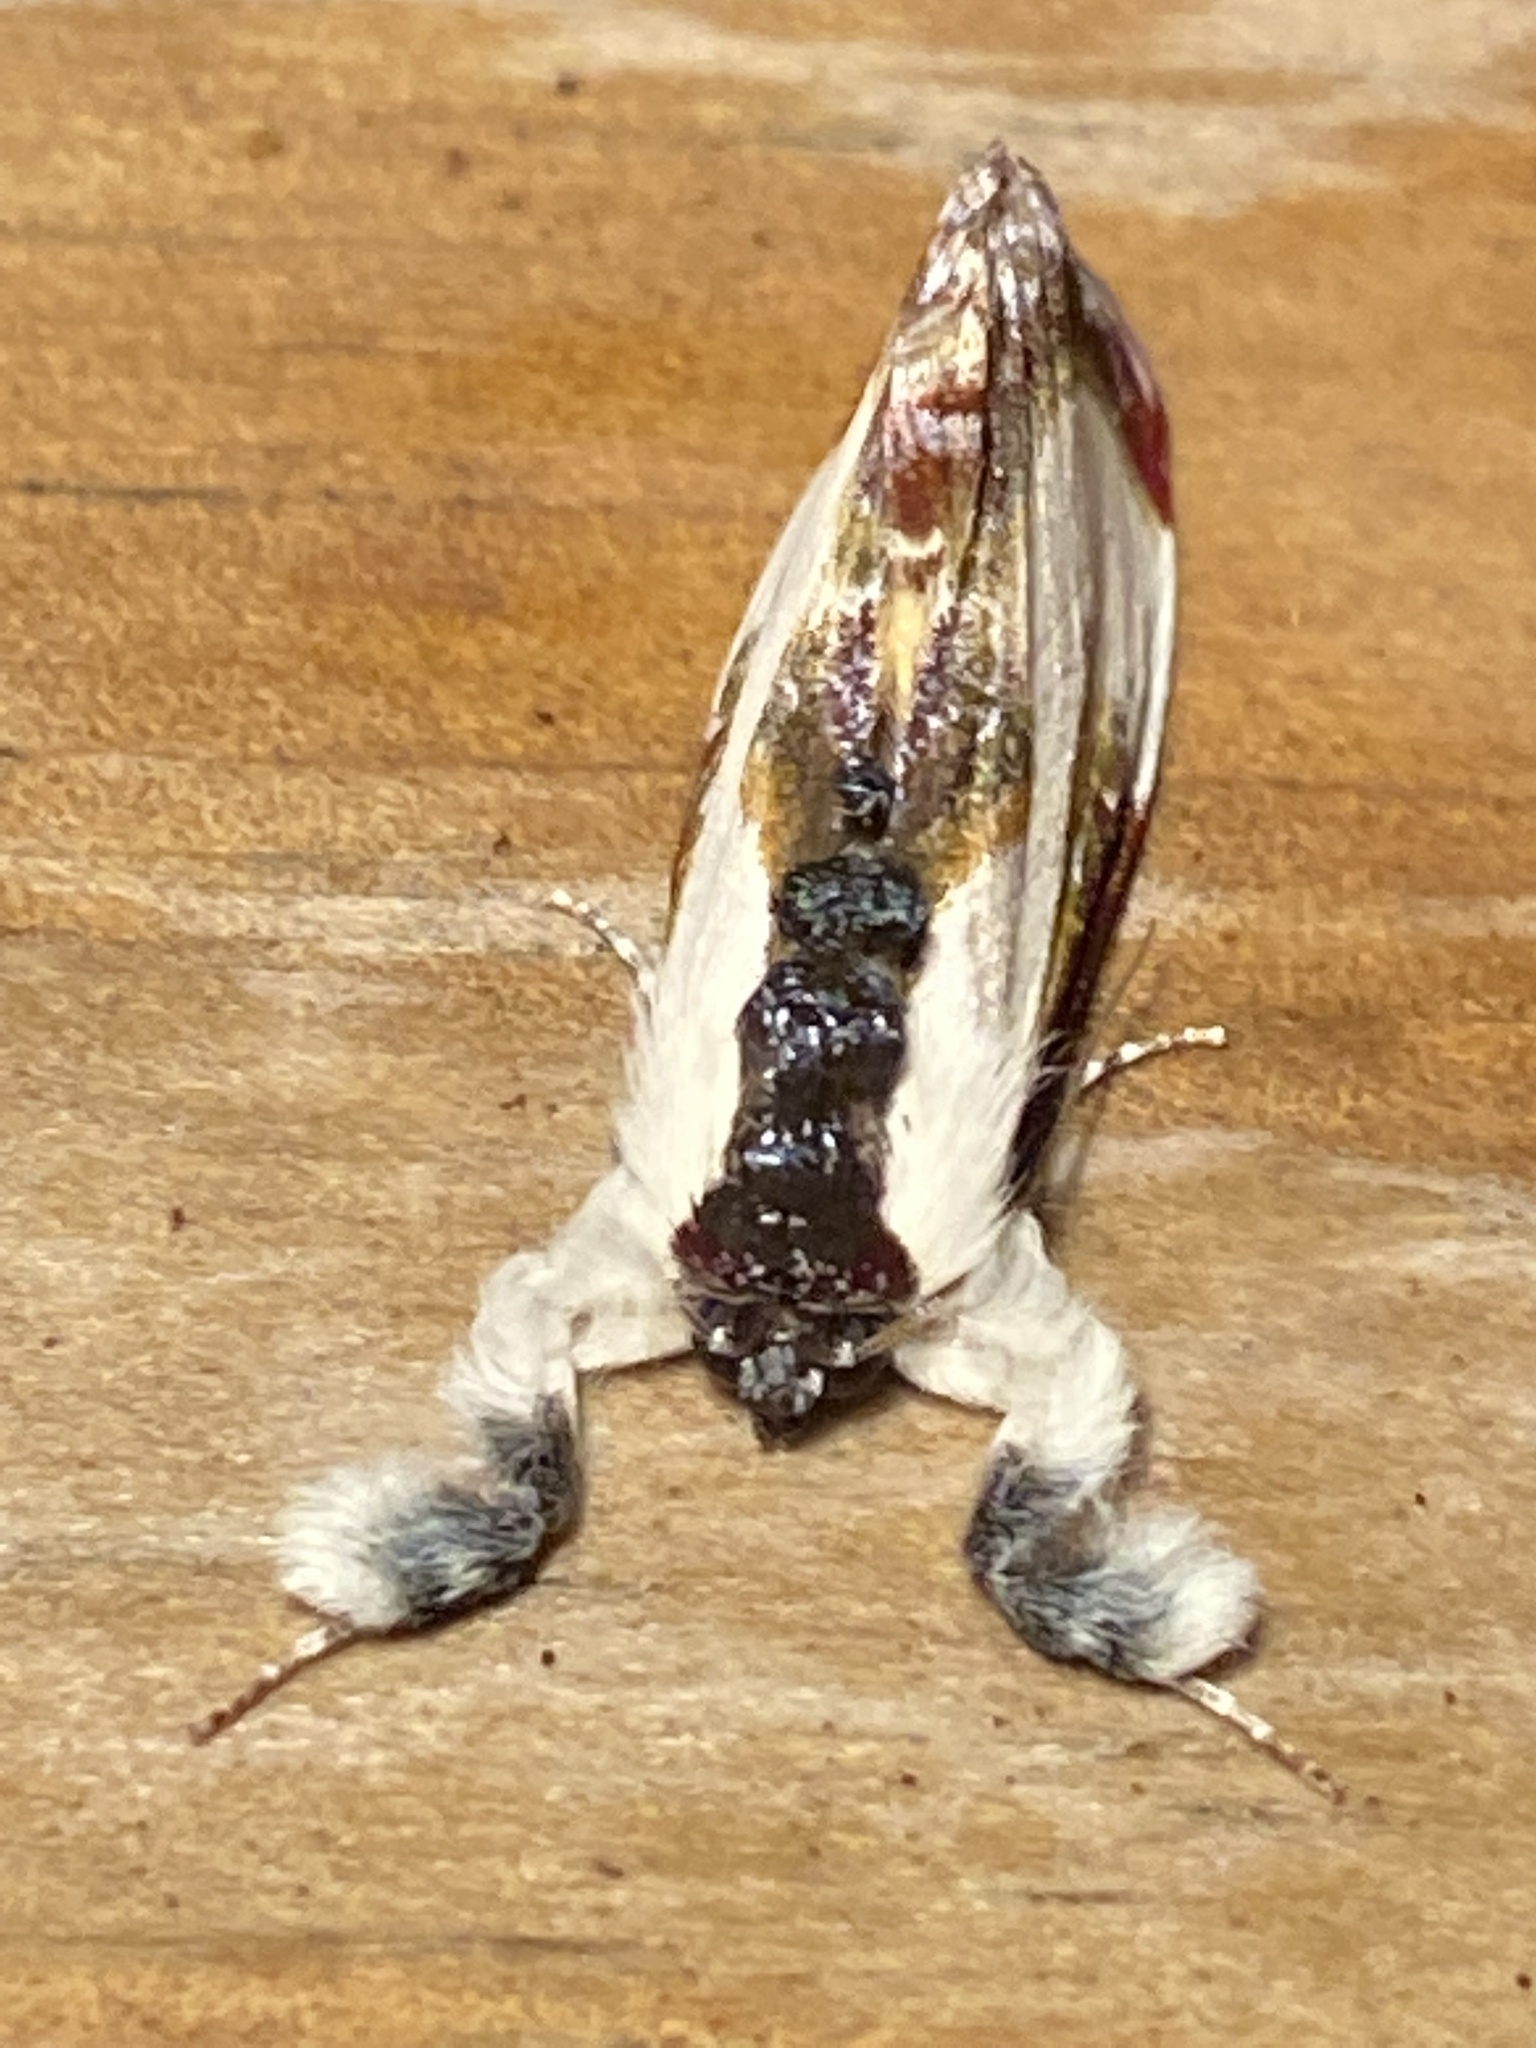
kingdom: Animalia
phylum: Arthropoda
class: Insecta
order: Lepidoptera
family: Noctuidae
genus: Eudryas
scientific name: Eudryas grata
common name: Beautiful wood-nymph
